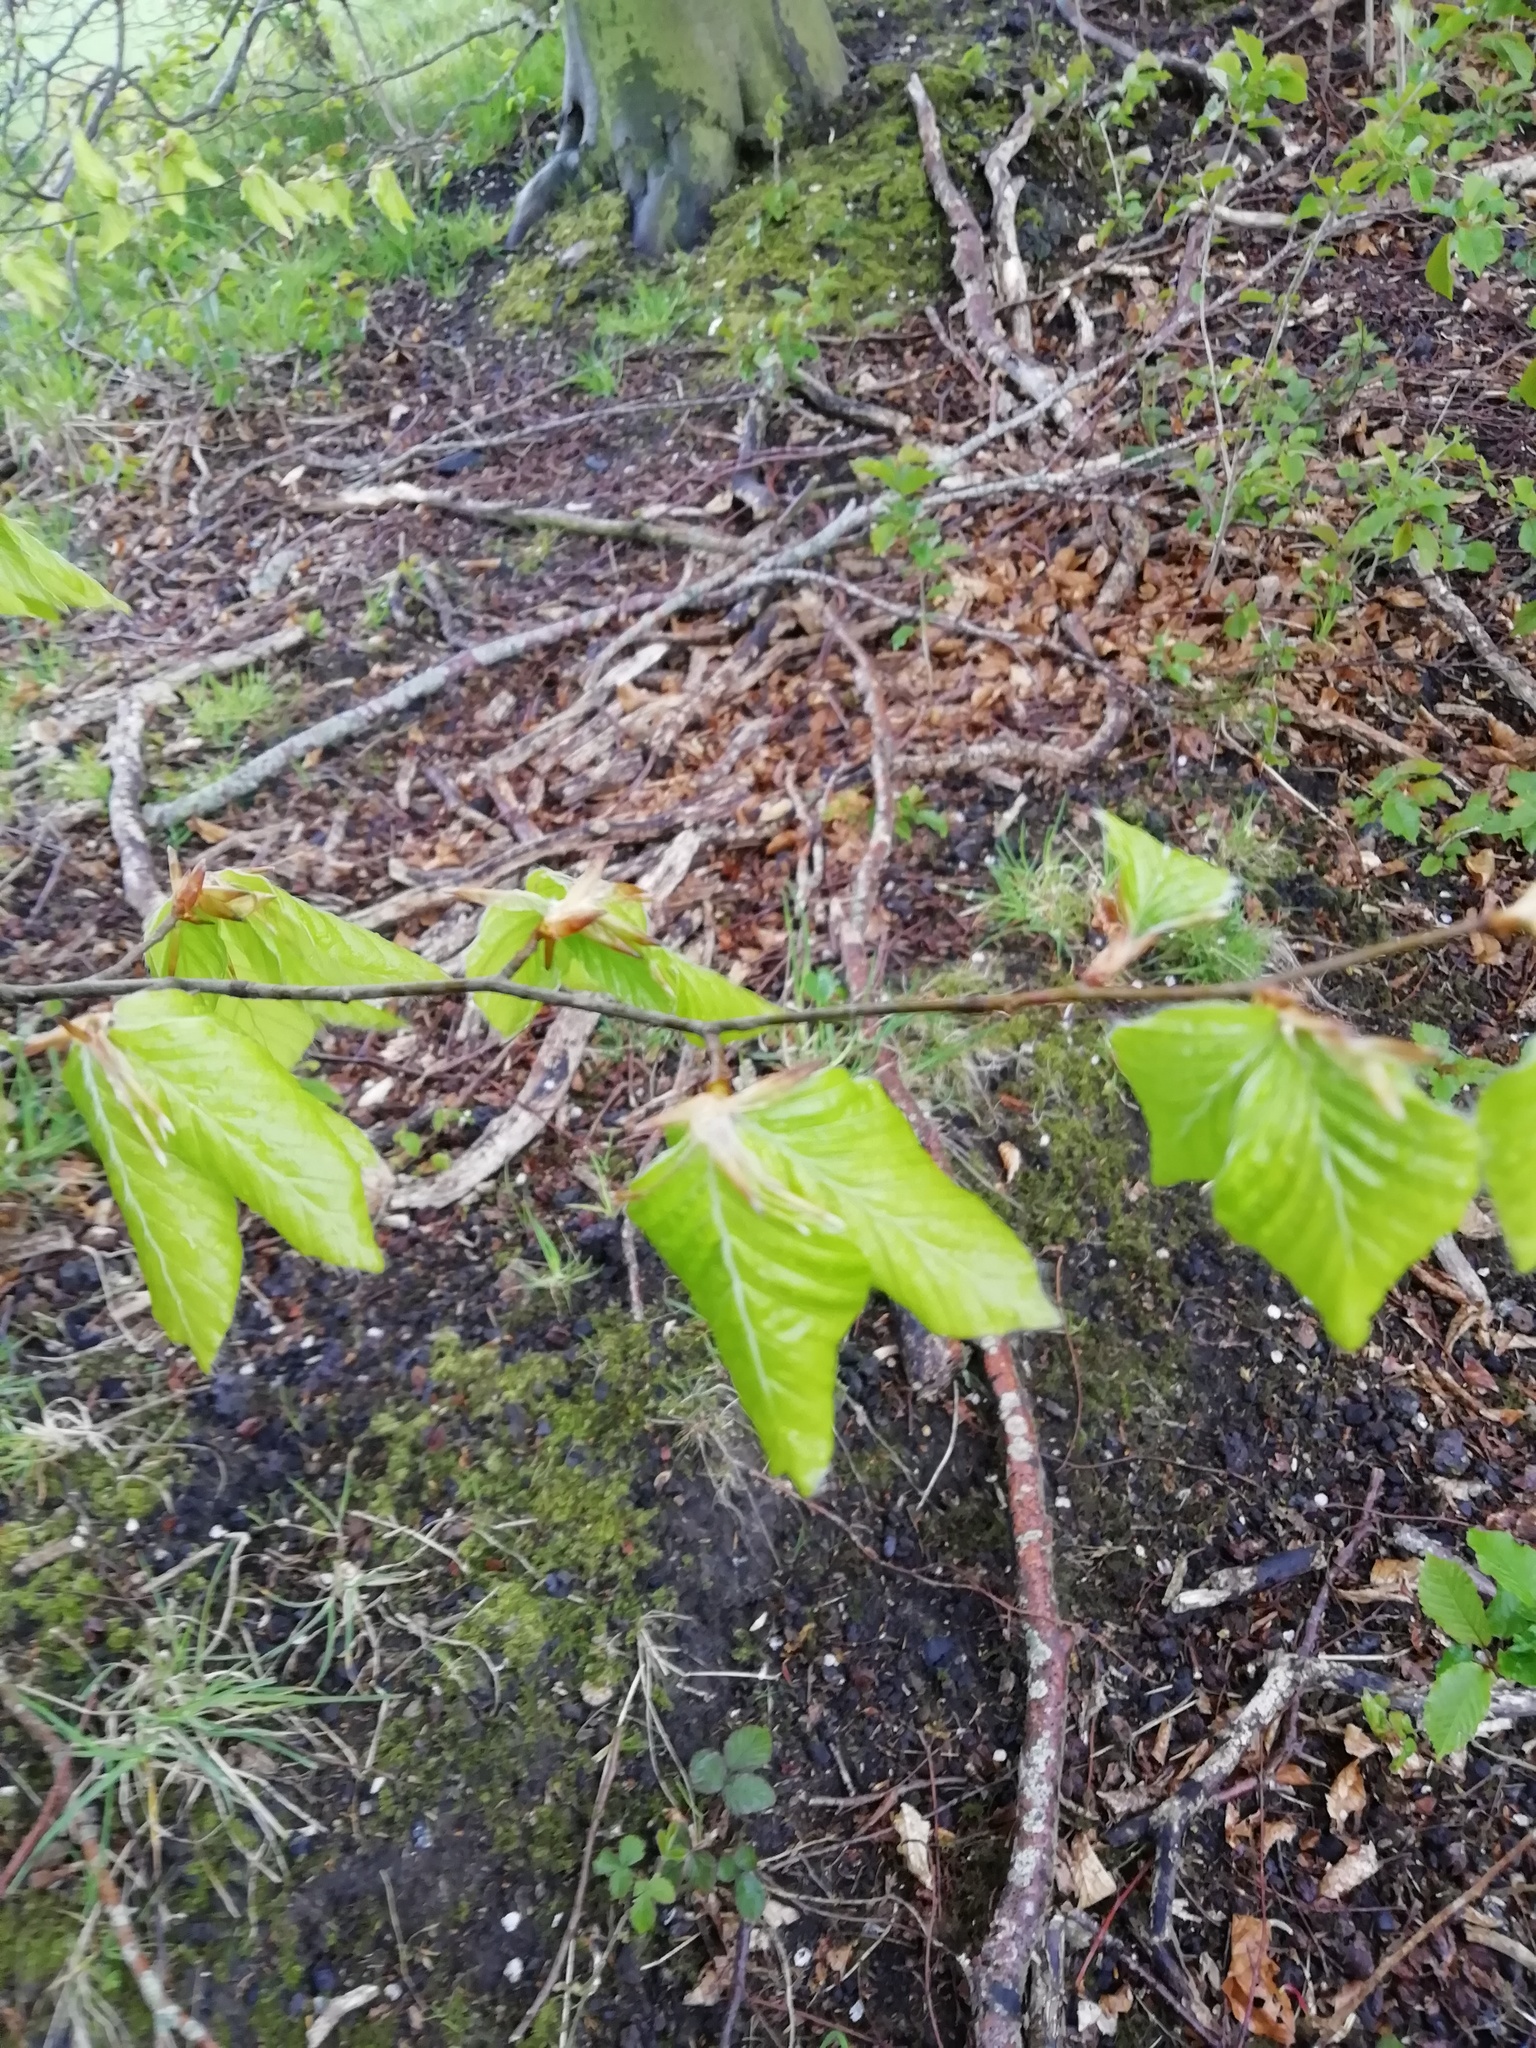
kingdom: Plantae
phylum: Tracheophyta
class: Magnoliopsida
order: Fagales
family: Fagaceae
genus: Fagus
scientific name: Fagus sylvatica
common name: Beech
